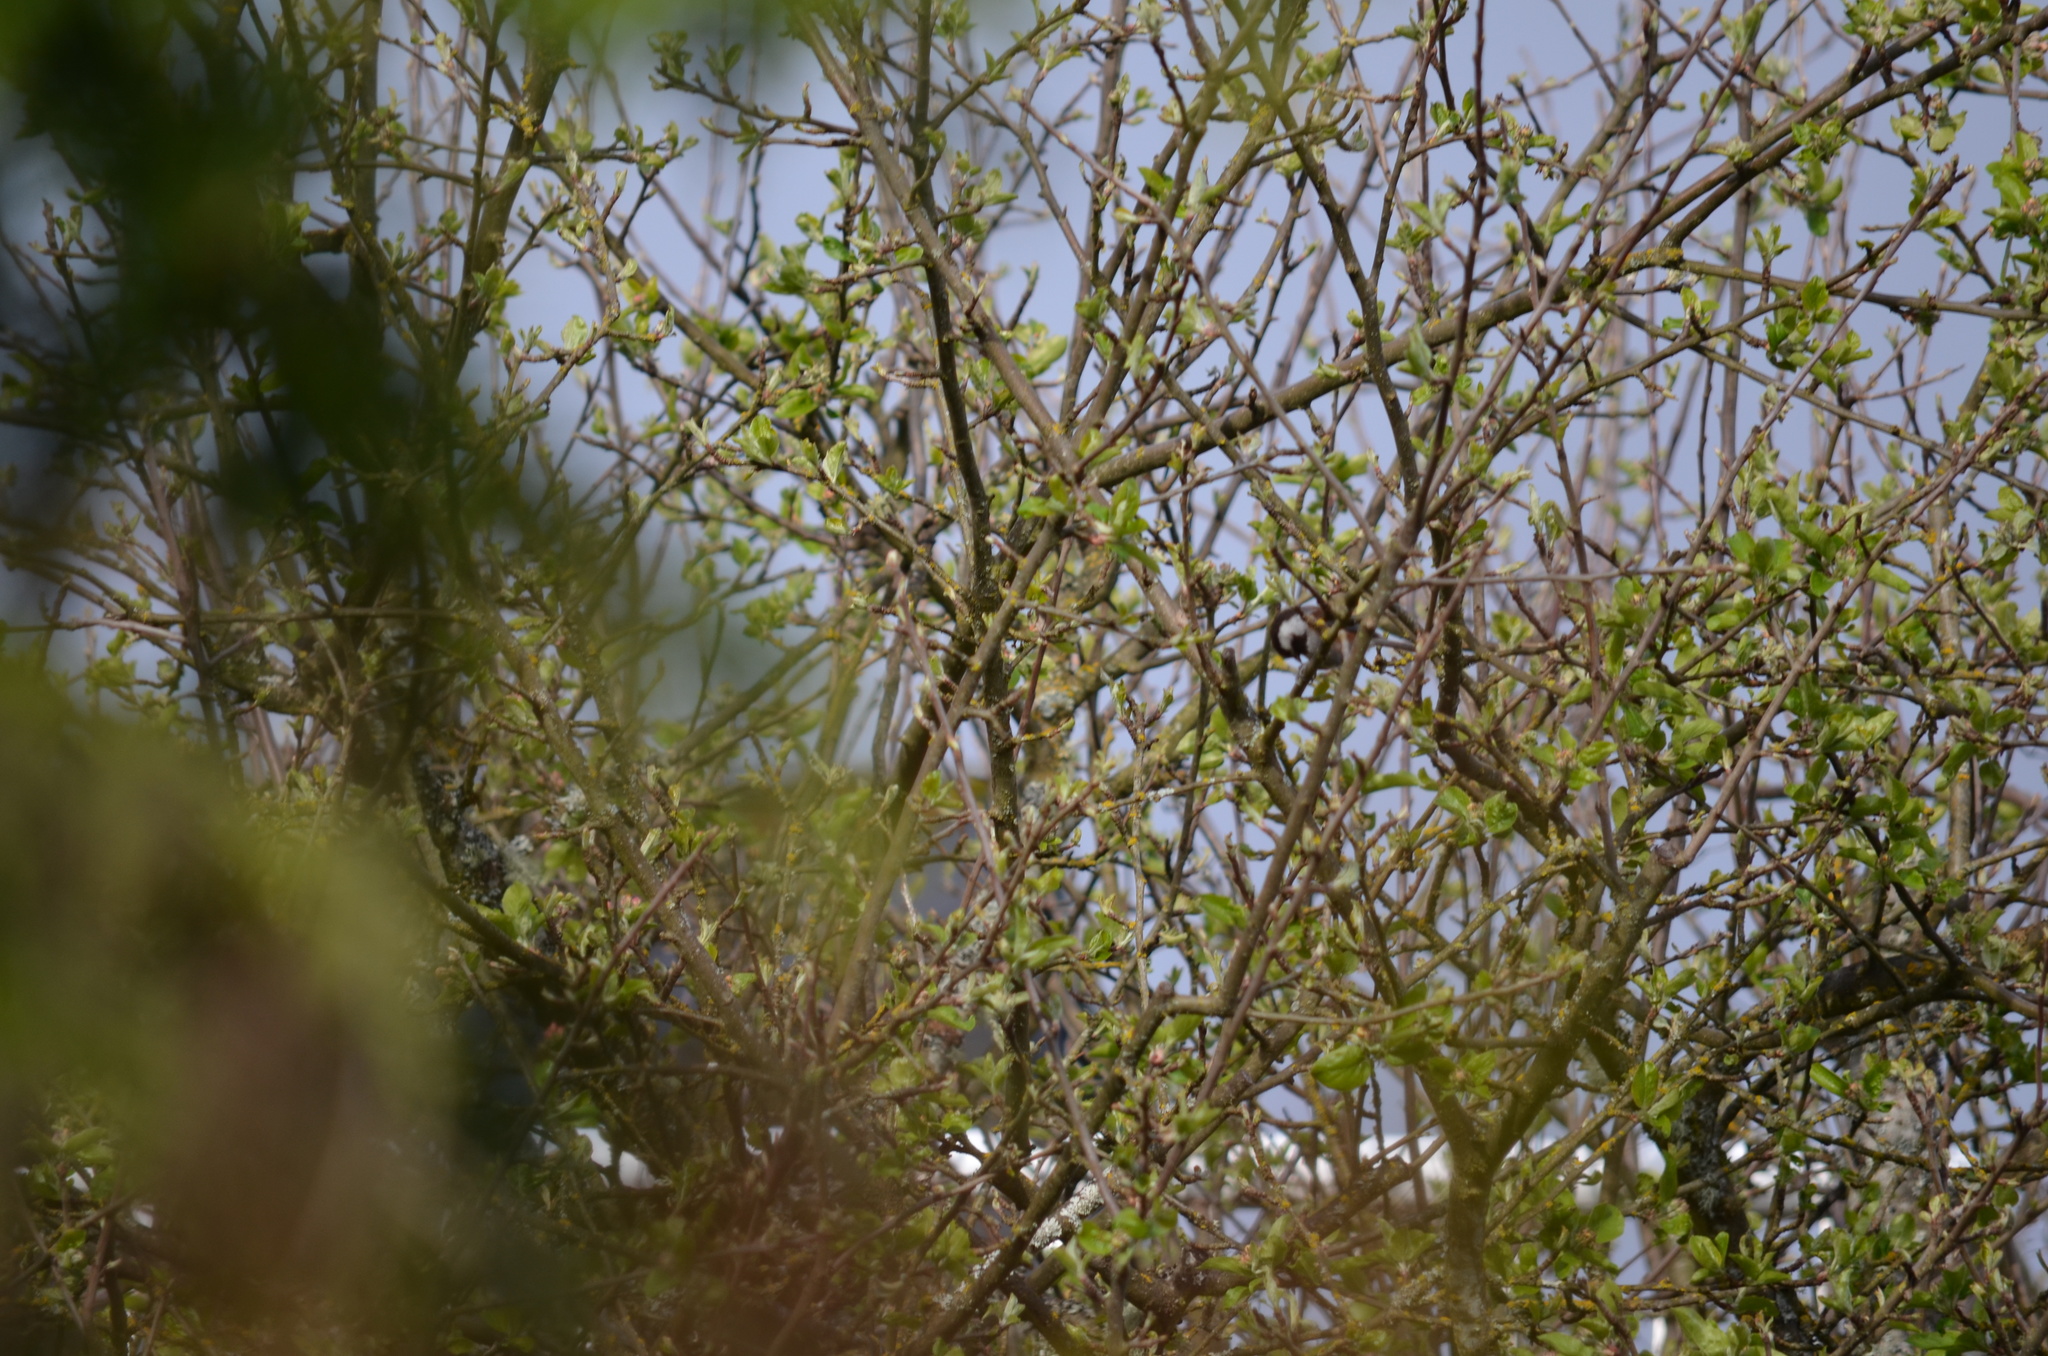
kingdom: Animalia
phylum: Chordata
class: Aves
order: Passeriformes
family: Paridae
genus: Poecile
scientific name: Poecile rufescens
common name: Chestnut-backed chickadee
